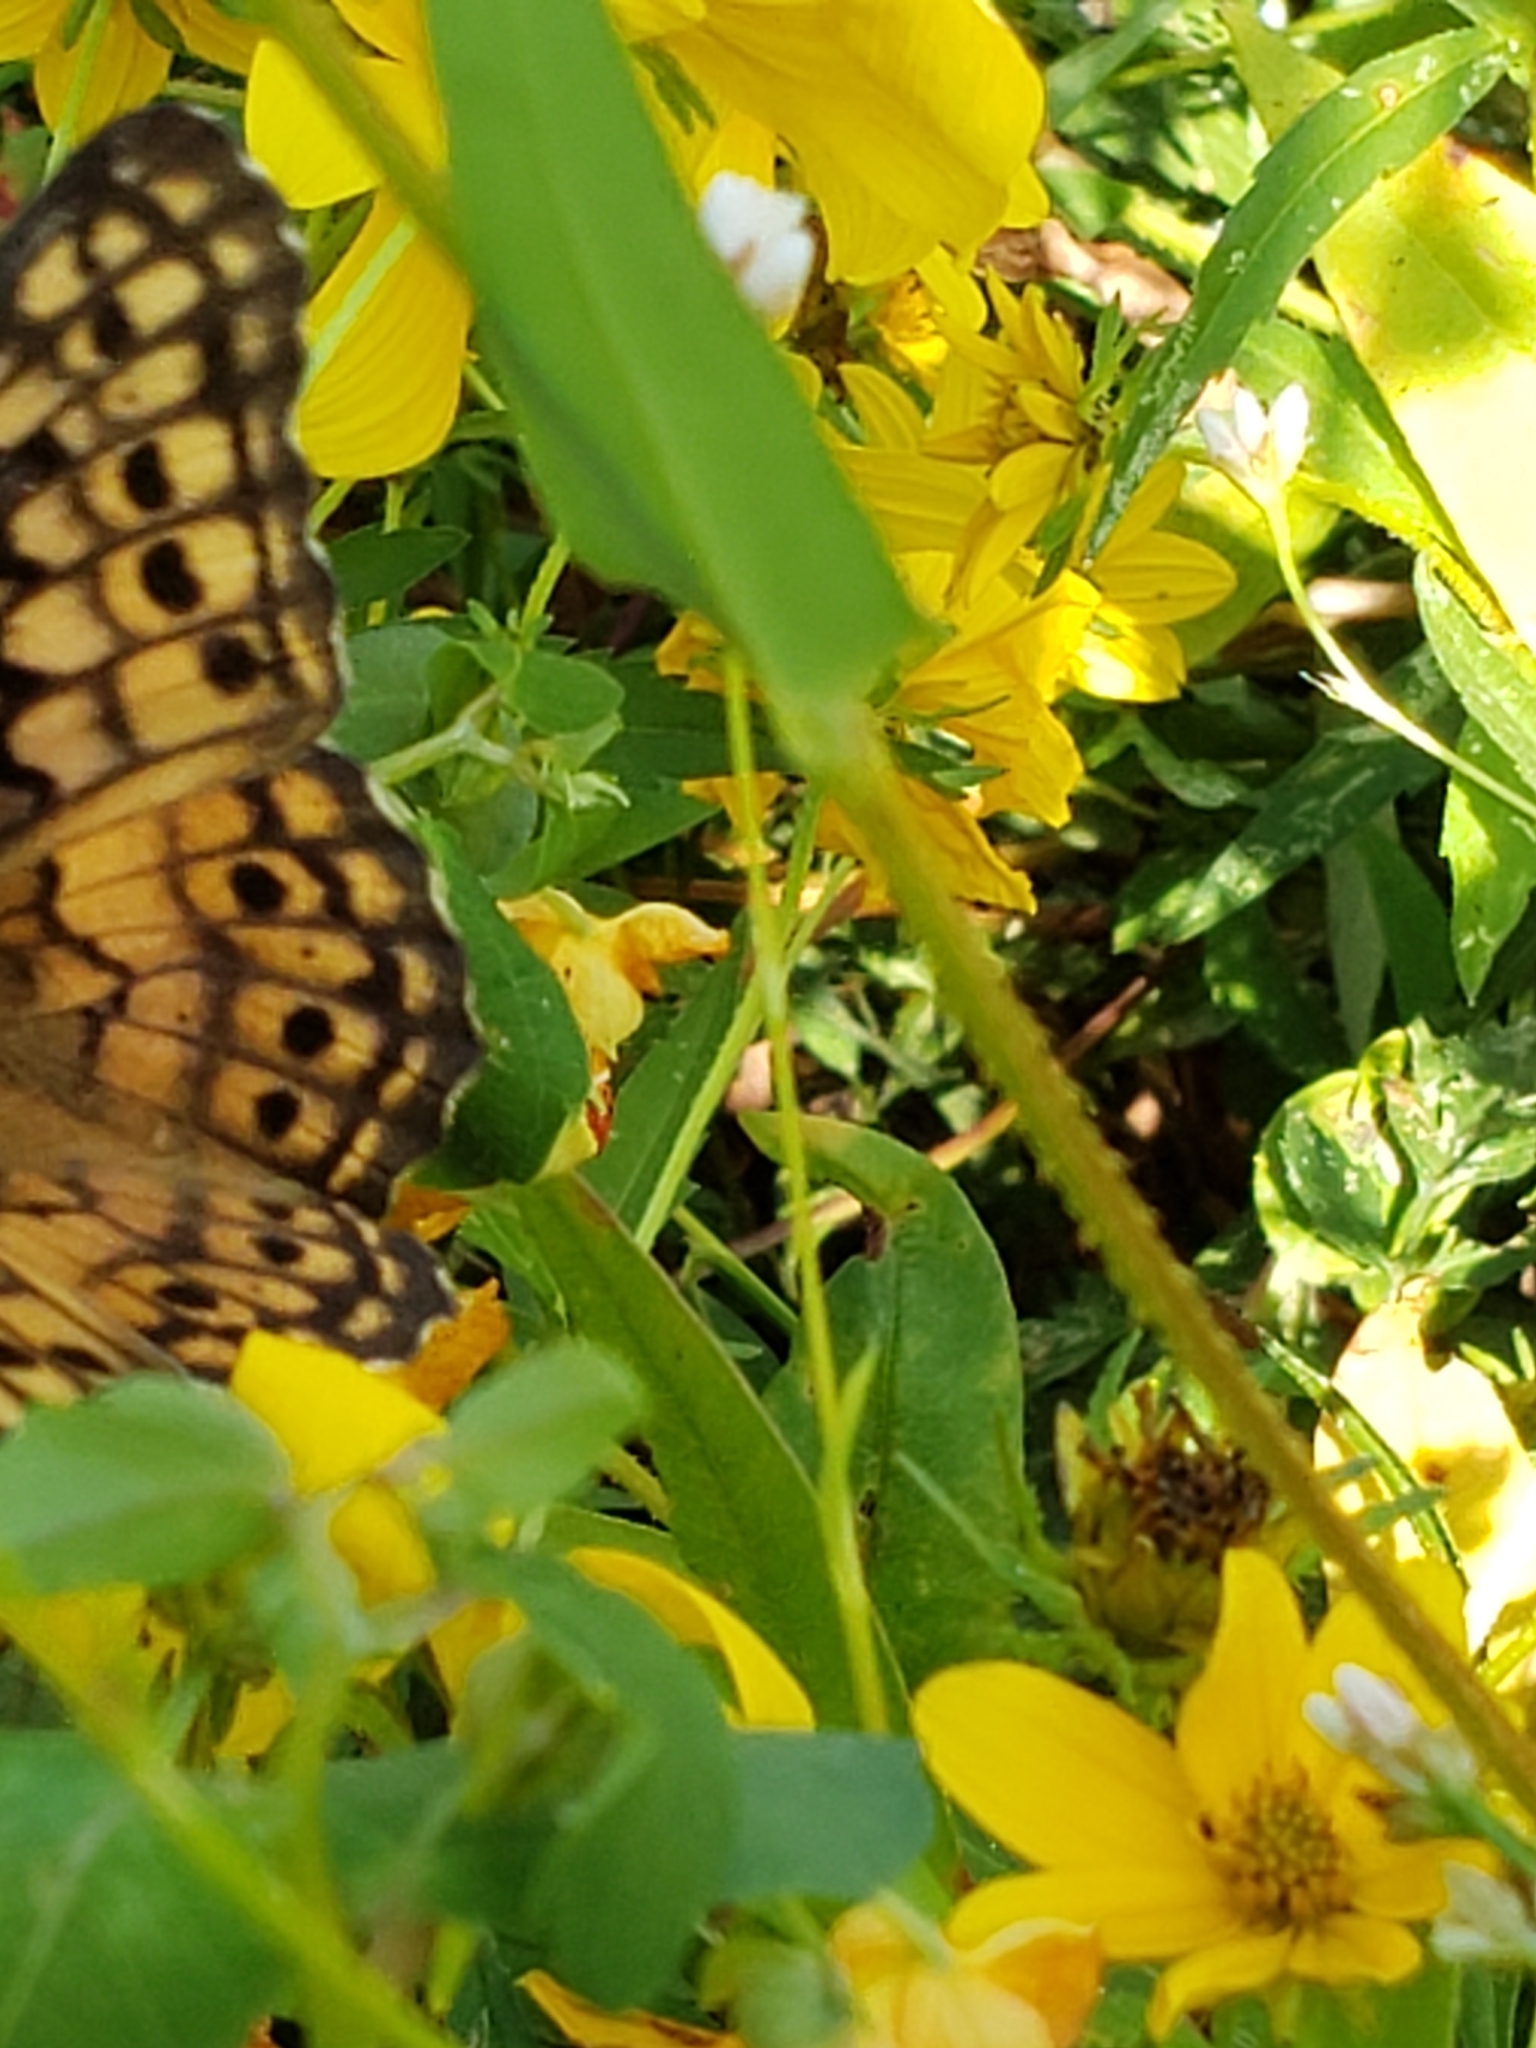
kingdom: Animalia
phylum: Arthropoda
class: Insecta
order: Lepidoptera
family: Nymphalidae
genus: Euptoieta
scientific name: Euptoieta claudia
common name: Variegated fritillary
